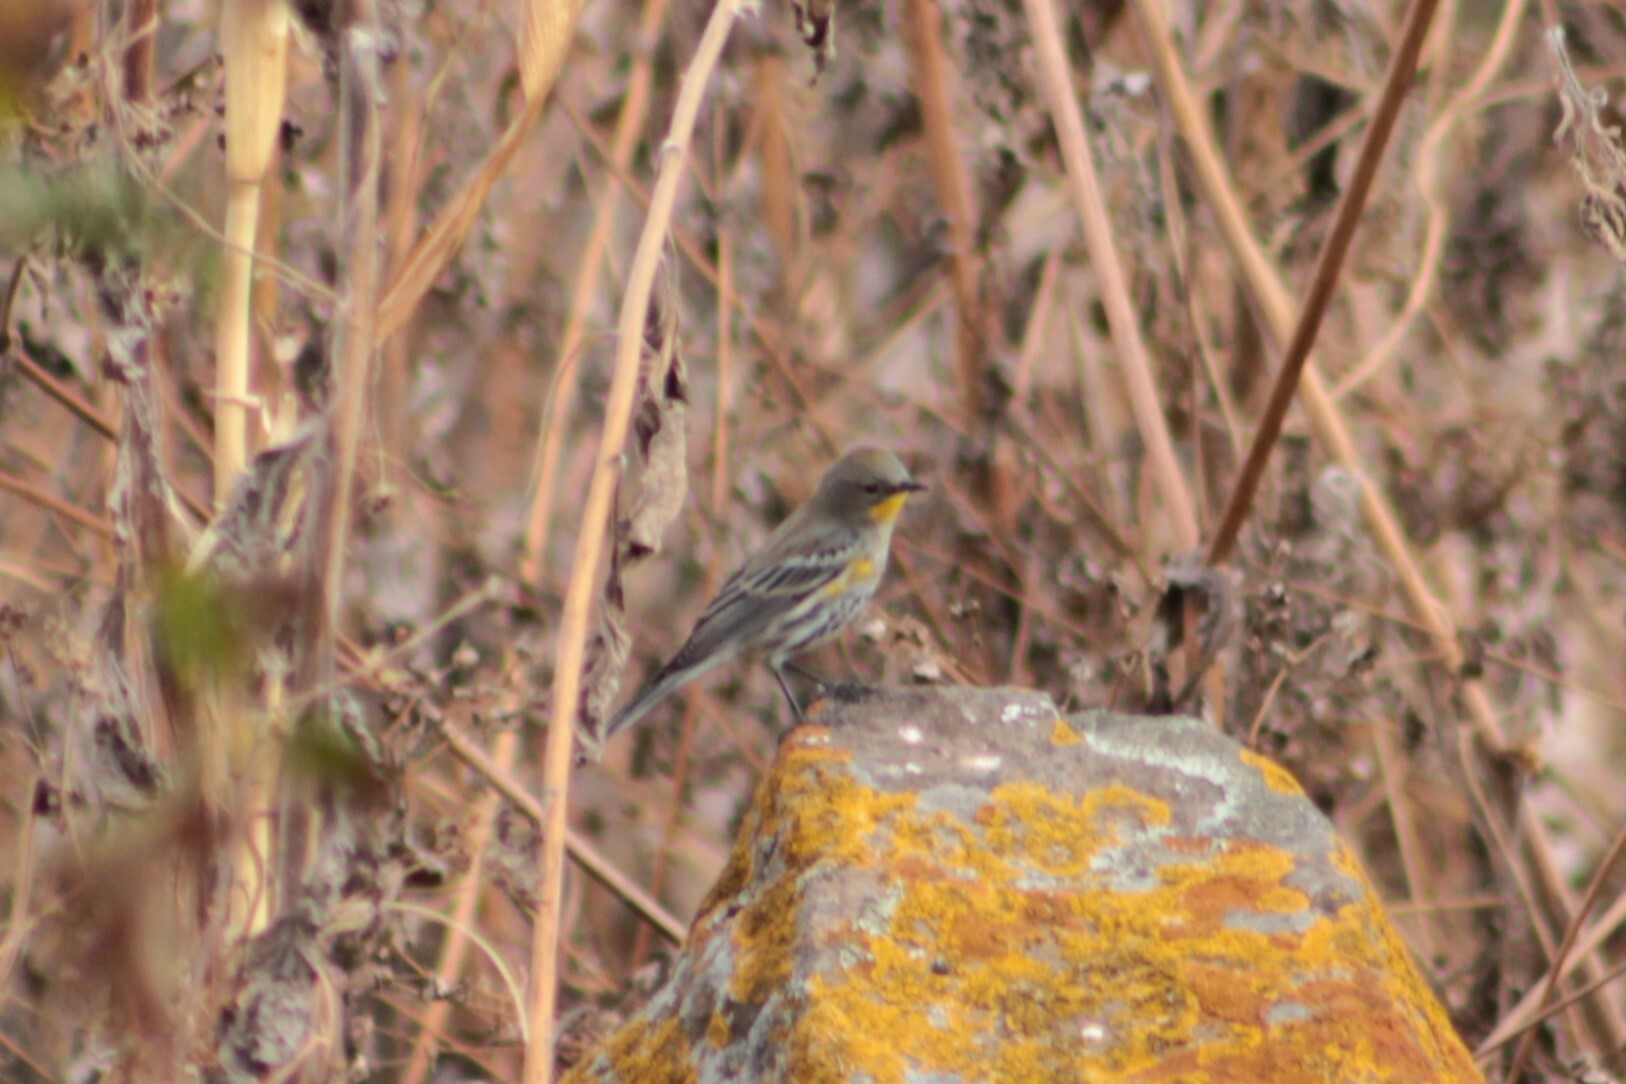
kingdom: Animalia
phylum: Chordata
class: Aves
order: Passeriformes
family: Parulidae
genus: Setophaga
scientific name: Setophaga auduboni
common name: Audubon's warbler
